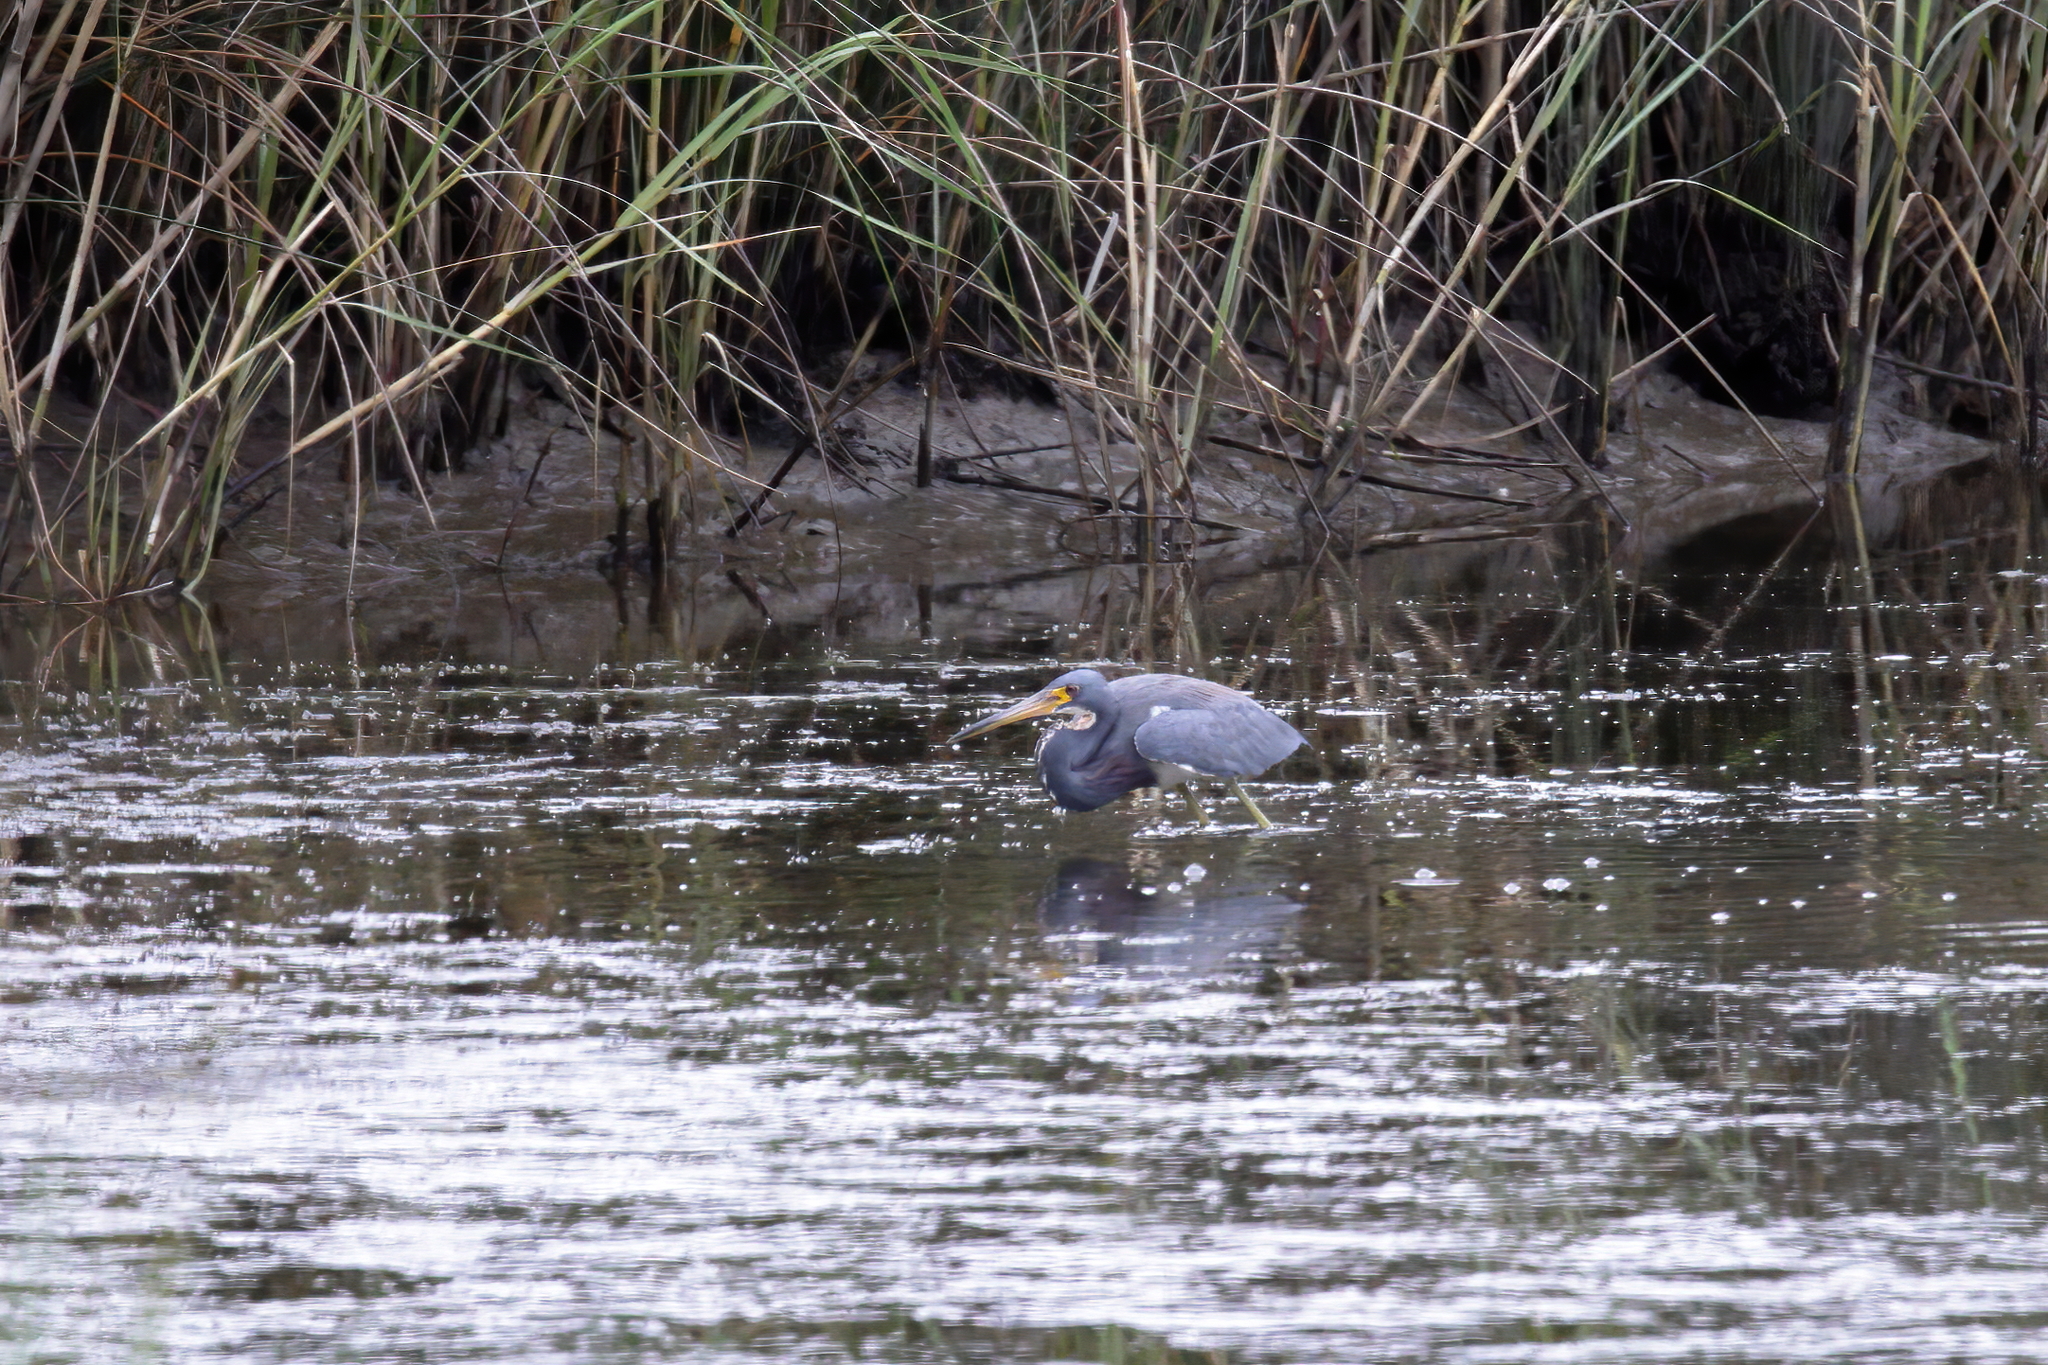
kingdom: Animalia
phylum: Chordata
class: Aves
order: Pelecaniformes
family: Ardeidae
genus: Egretta
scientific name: Egretta tricolor
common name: Tricolored heron
